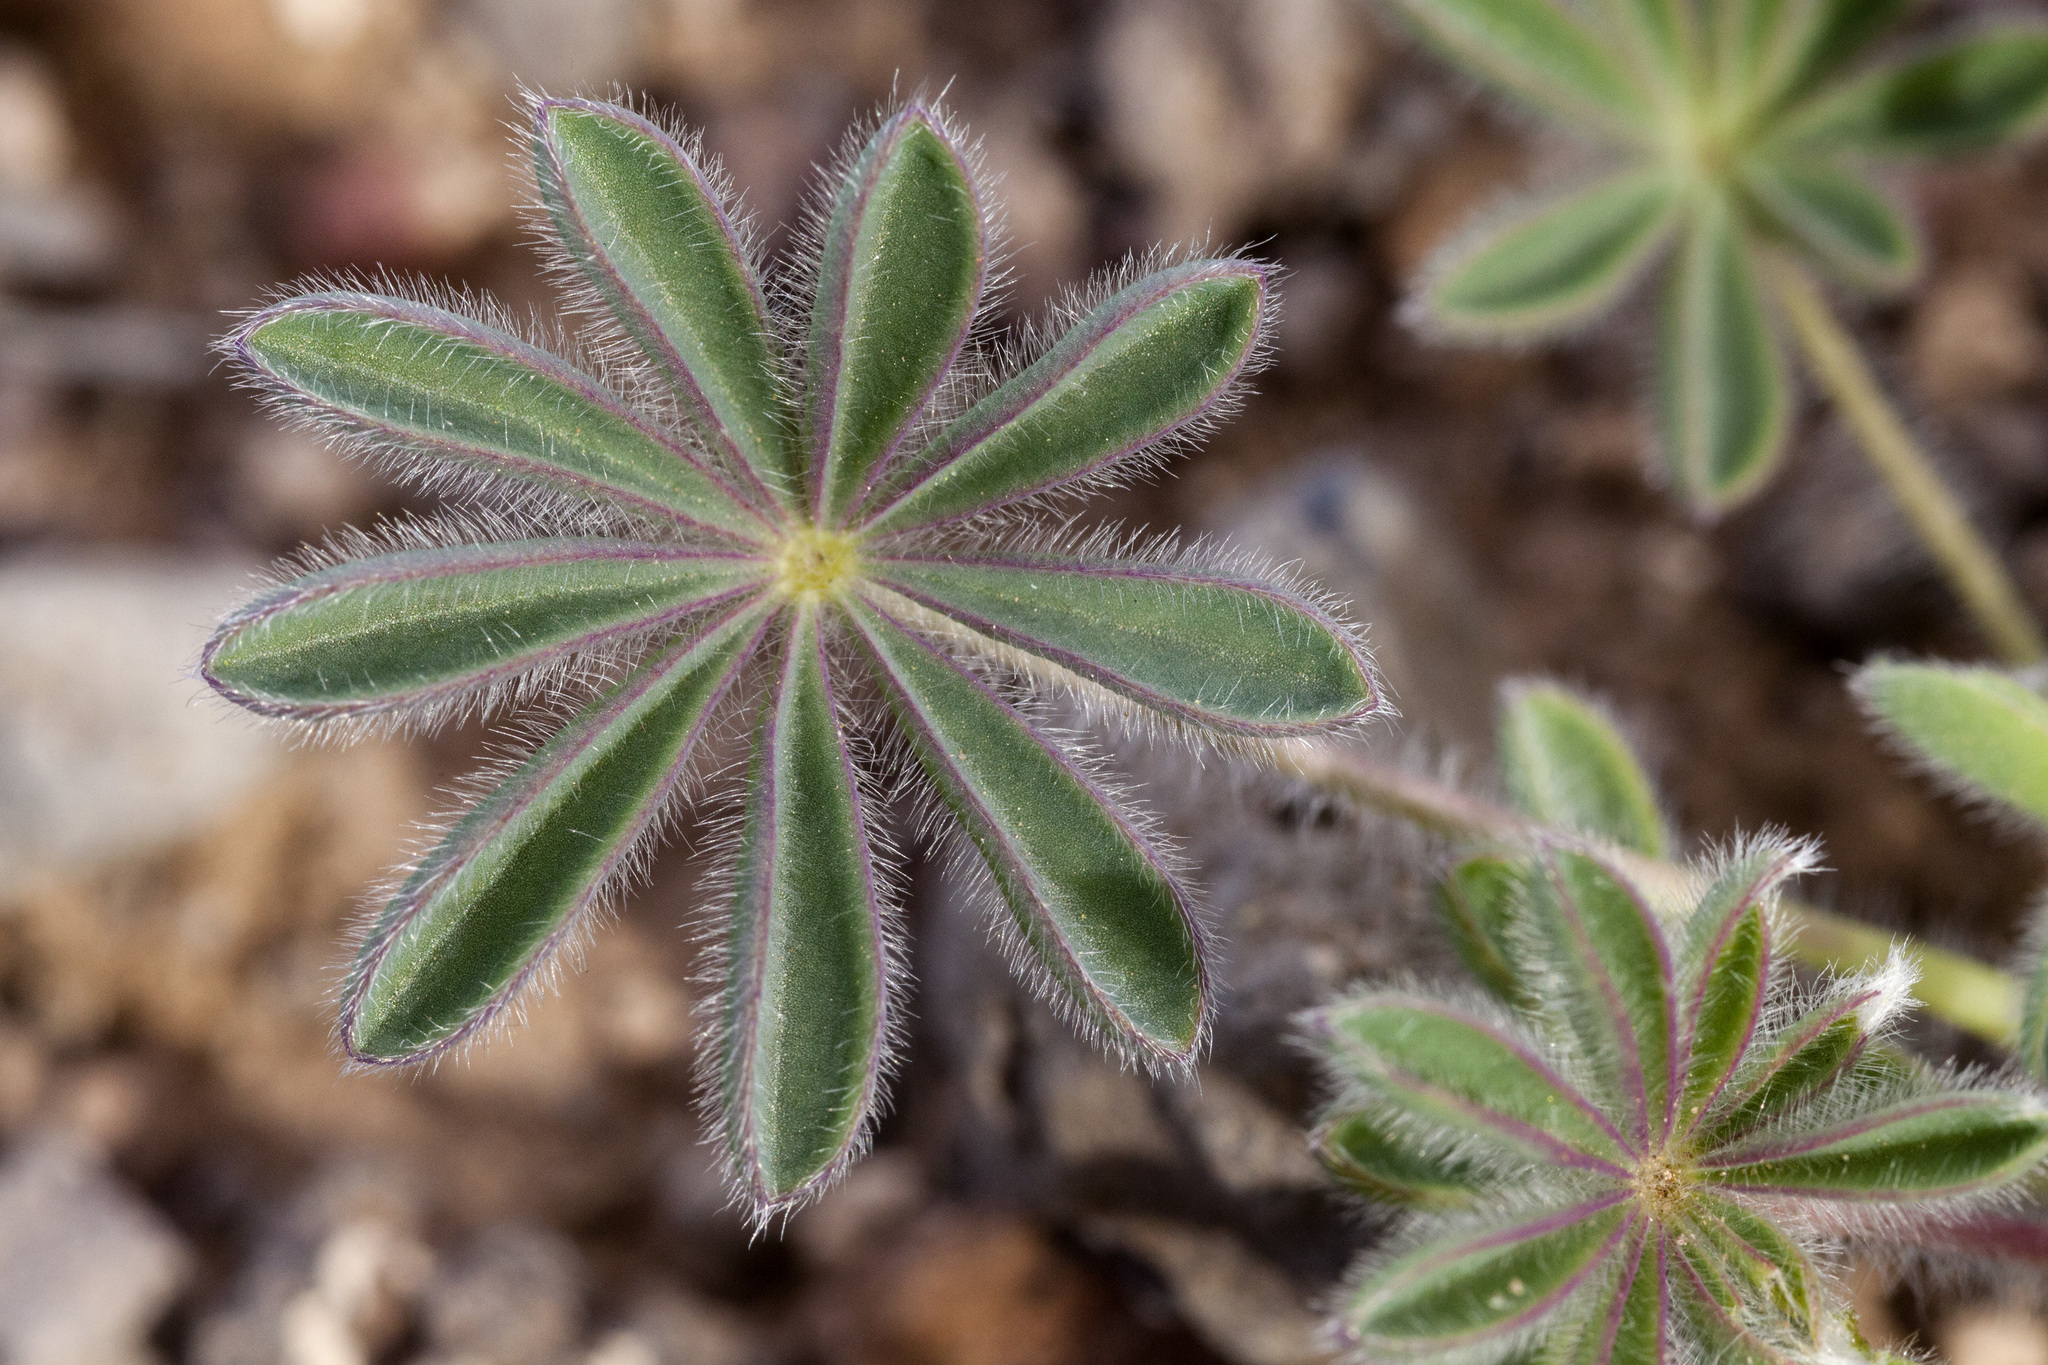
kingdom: Plantae
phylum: Tracheophyta
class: Magnoliopsida
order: Fabales
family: Fabaceae
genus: Lupinus
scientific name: Lupinus brevicaulis
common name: Sand lupine
